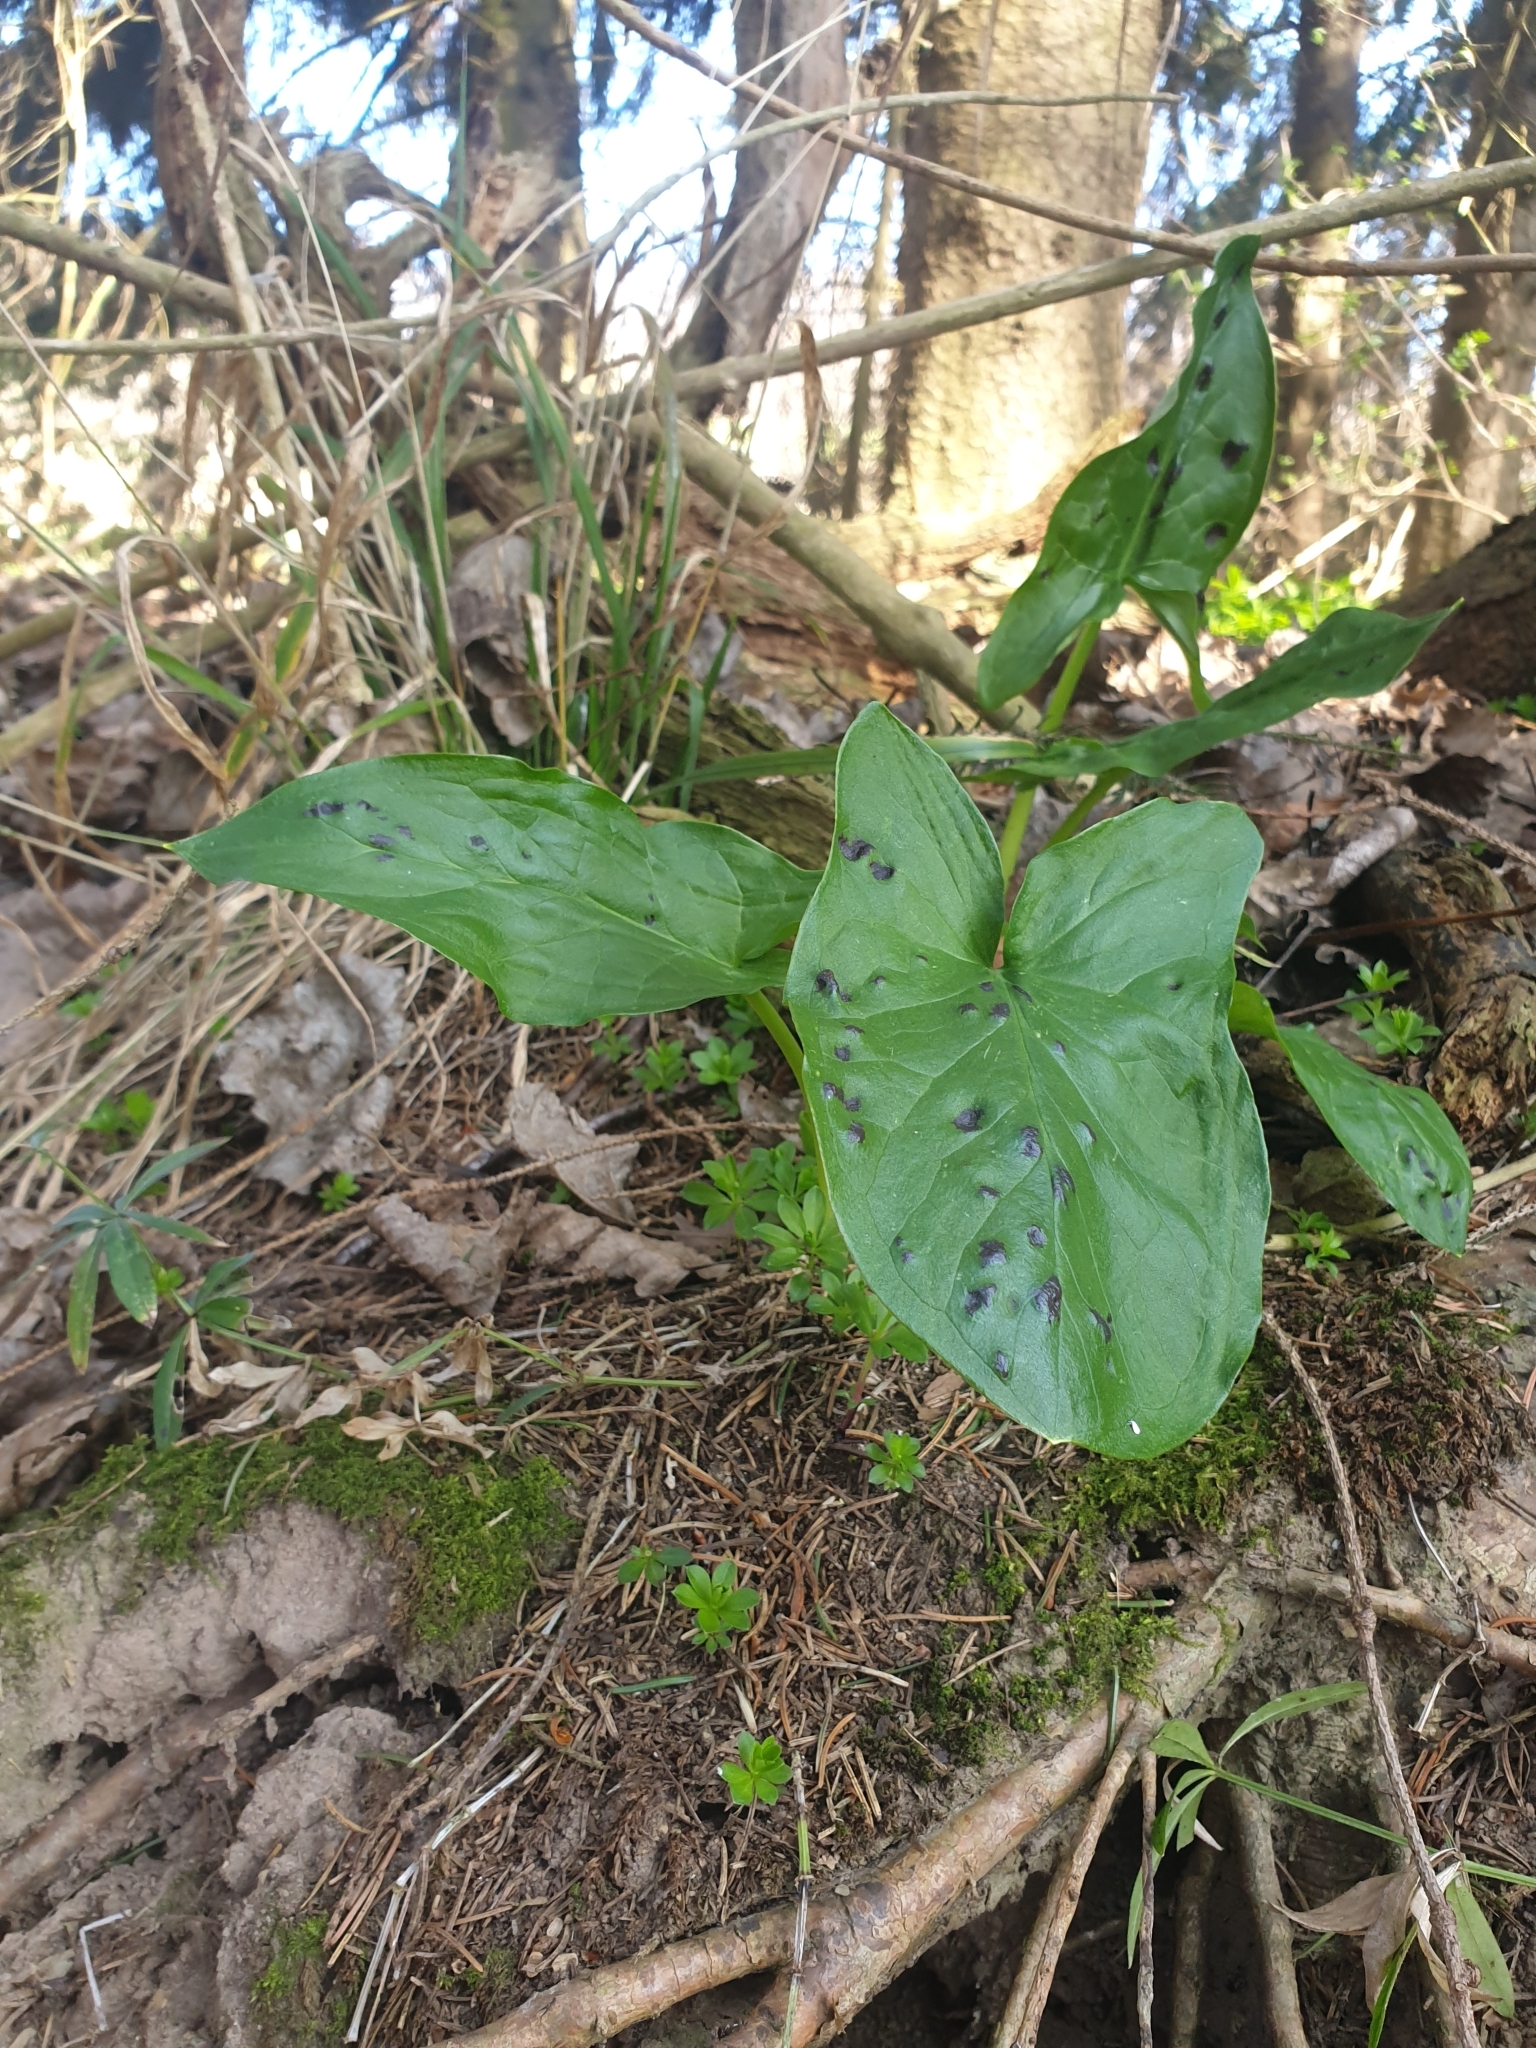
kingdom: Plantae
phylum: Tracheophyta
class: Liliopsida
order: Alismatales
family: Araceae
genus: Arum
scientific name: Arum maculatum
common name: Lords-and-ladies
